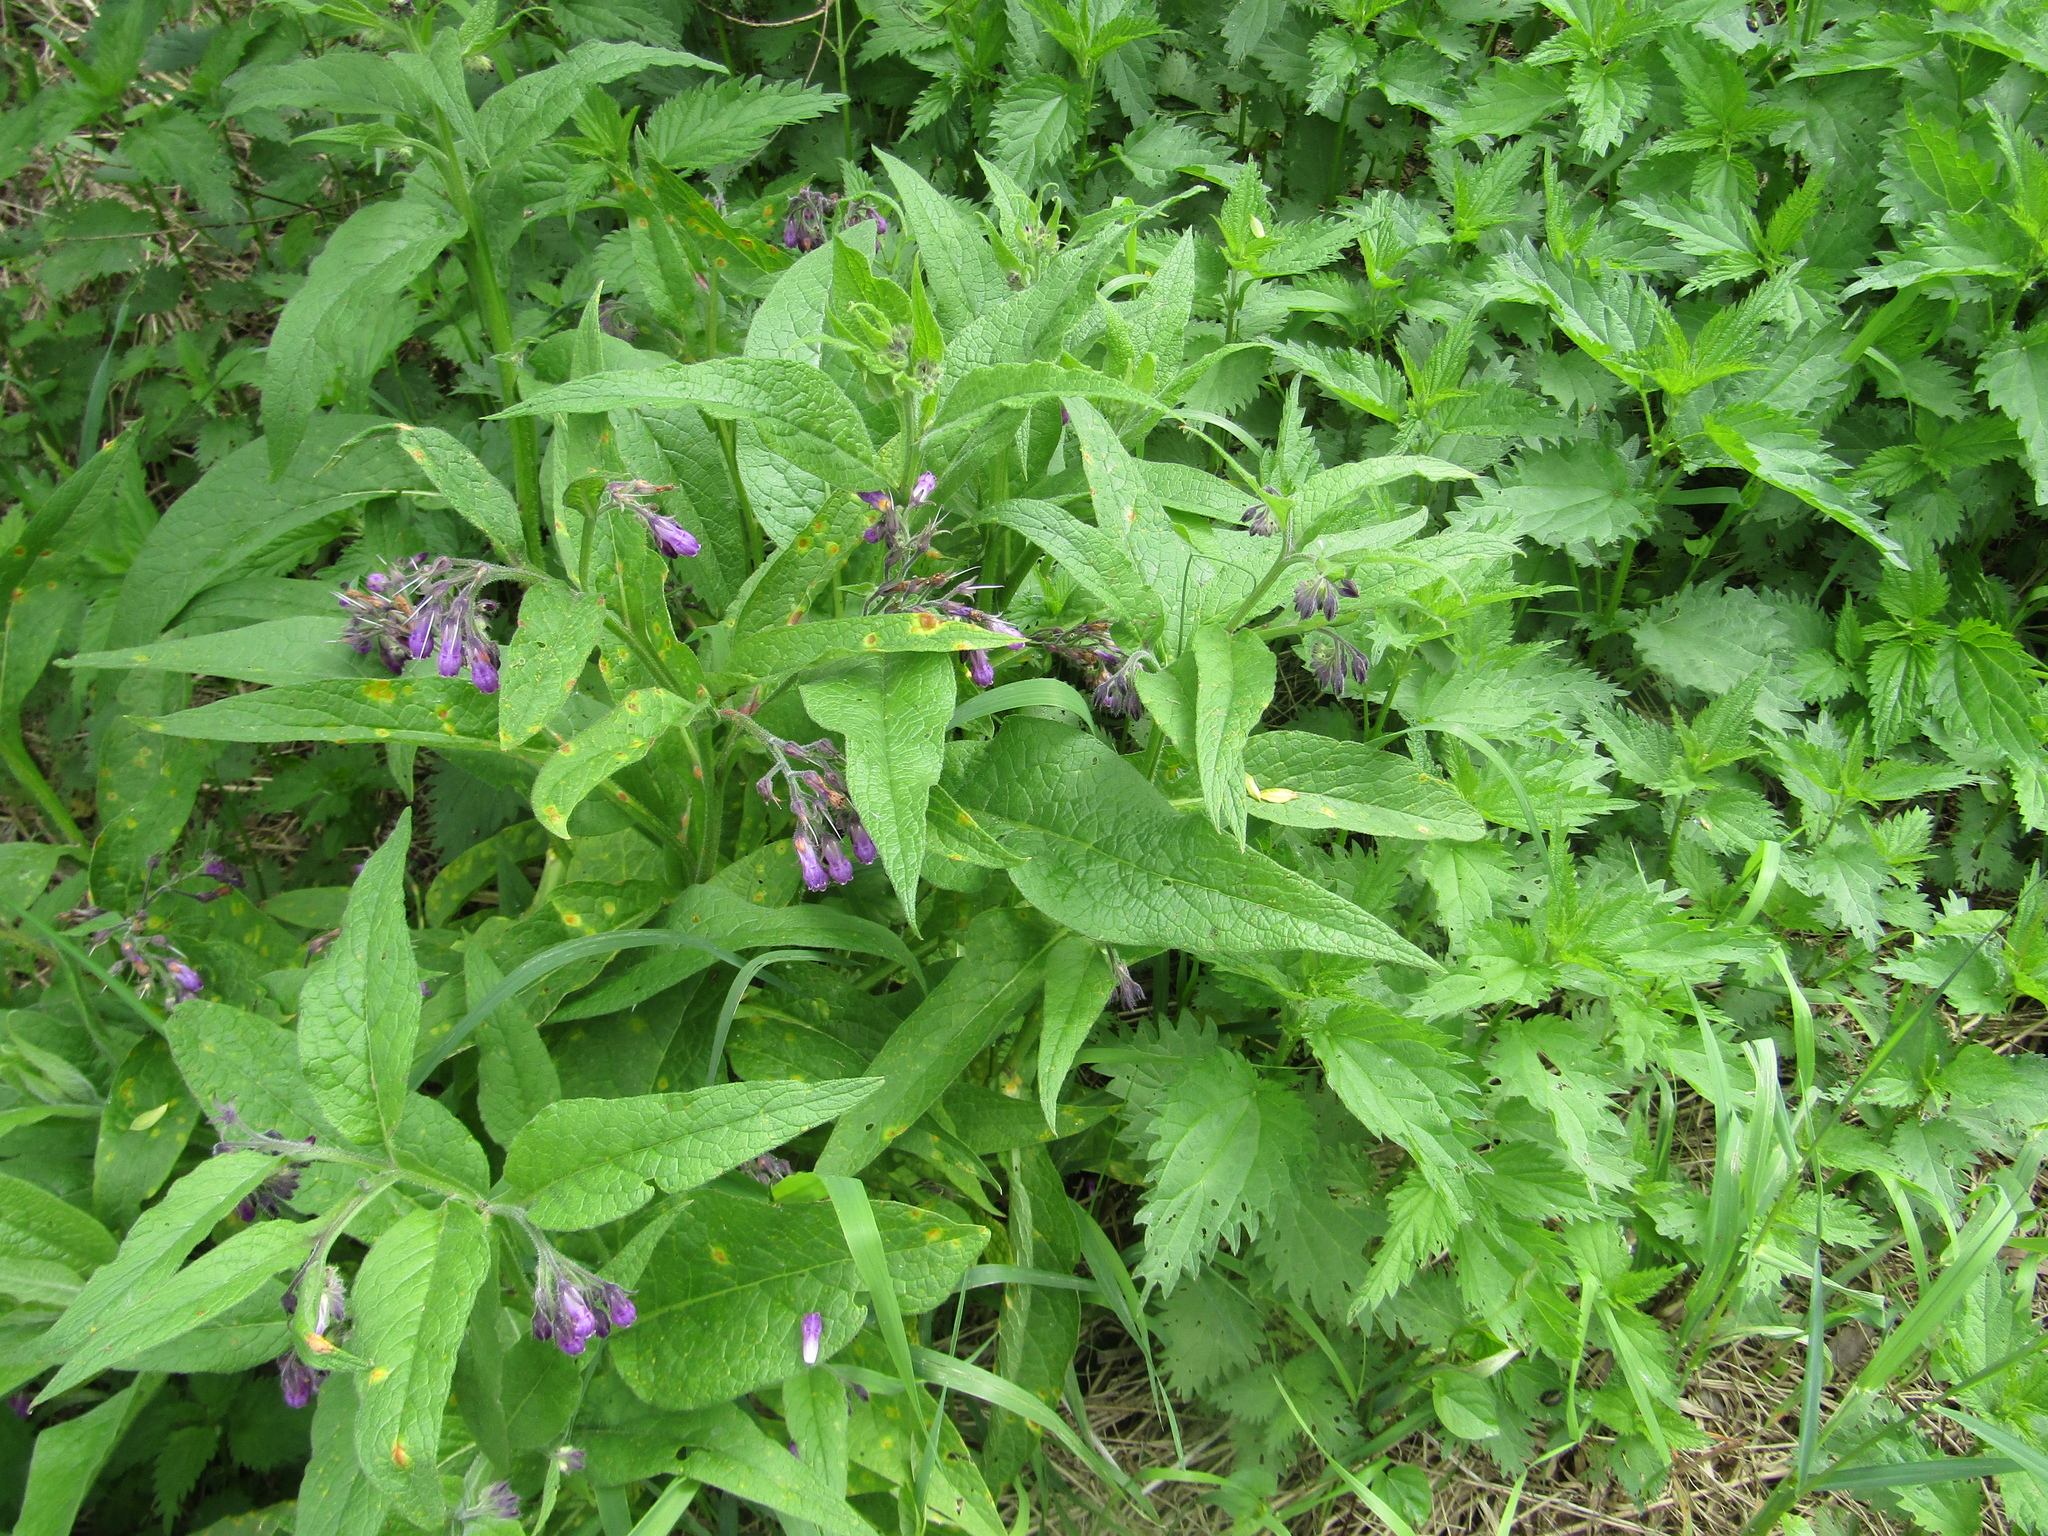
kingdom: Plantae
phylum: Tracheophyta
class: Magnoliopsida
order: Boraginales
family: Boraginaceae
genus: Symphytum
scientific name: Symphytum officinale
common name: Common comfrey
